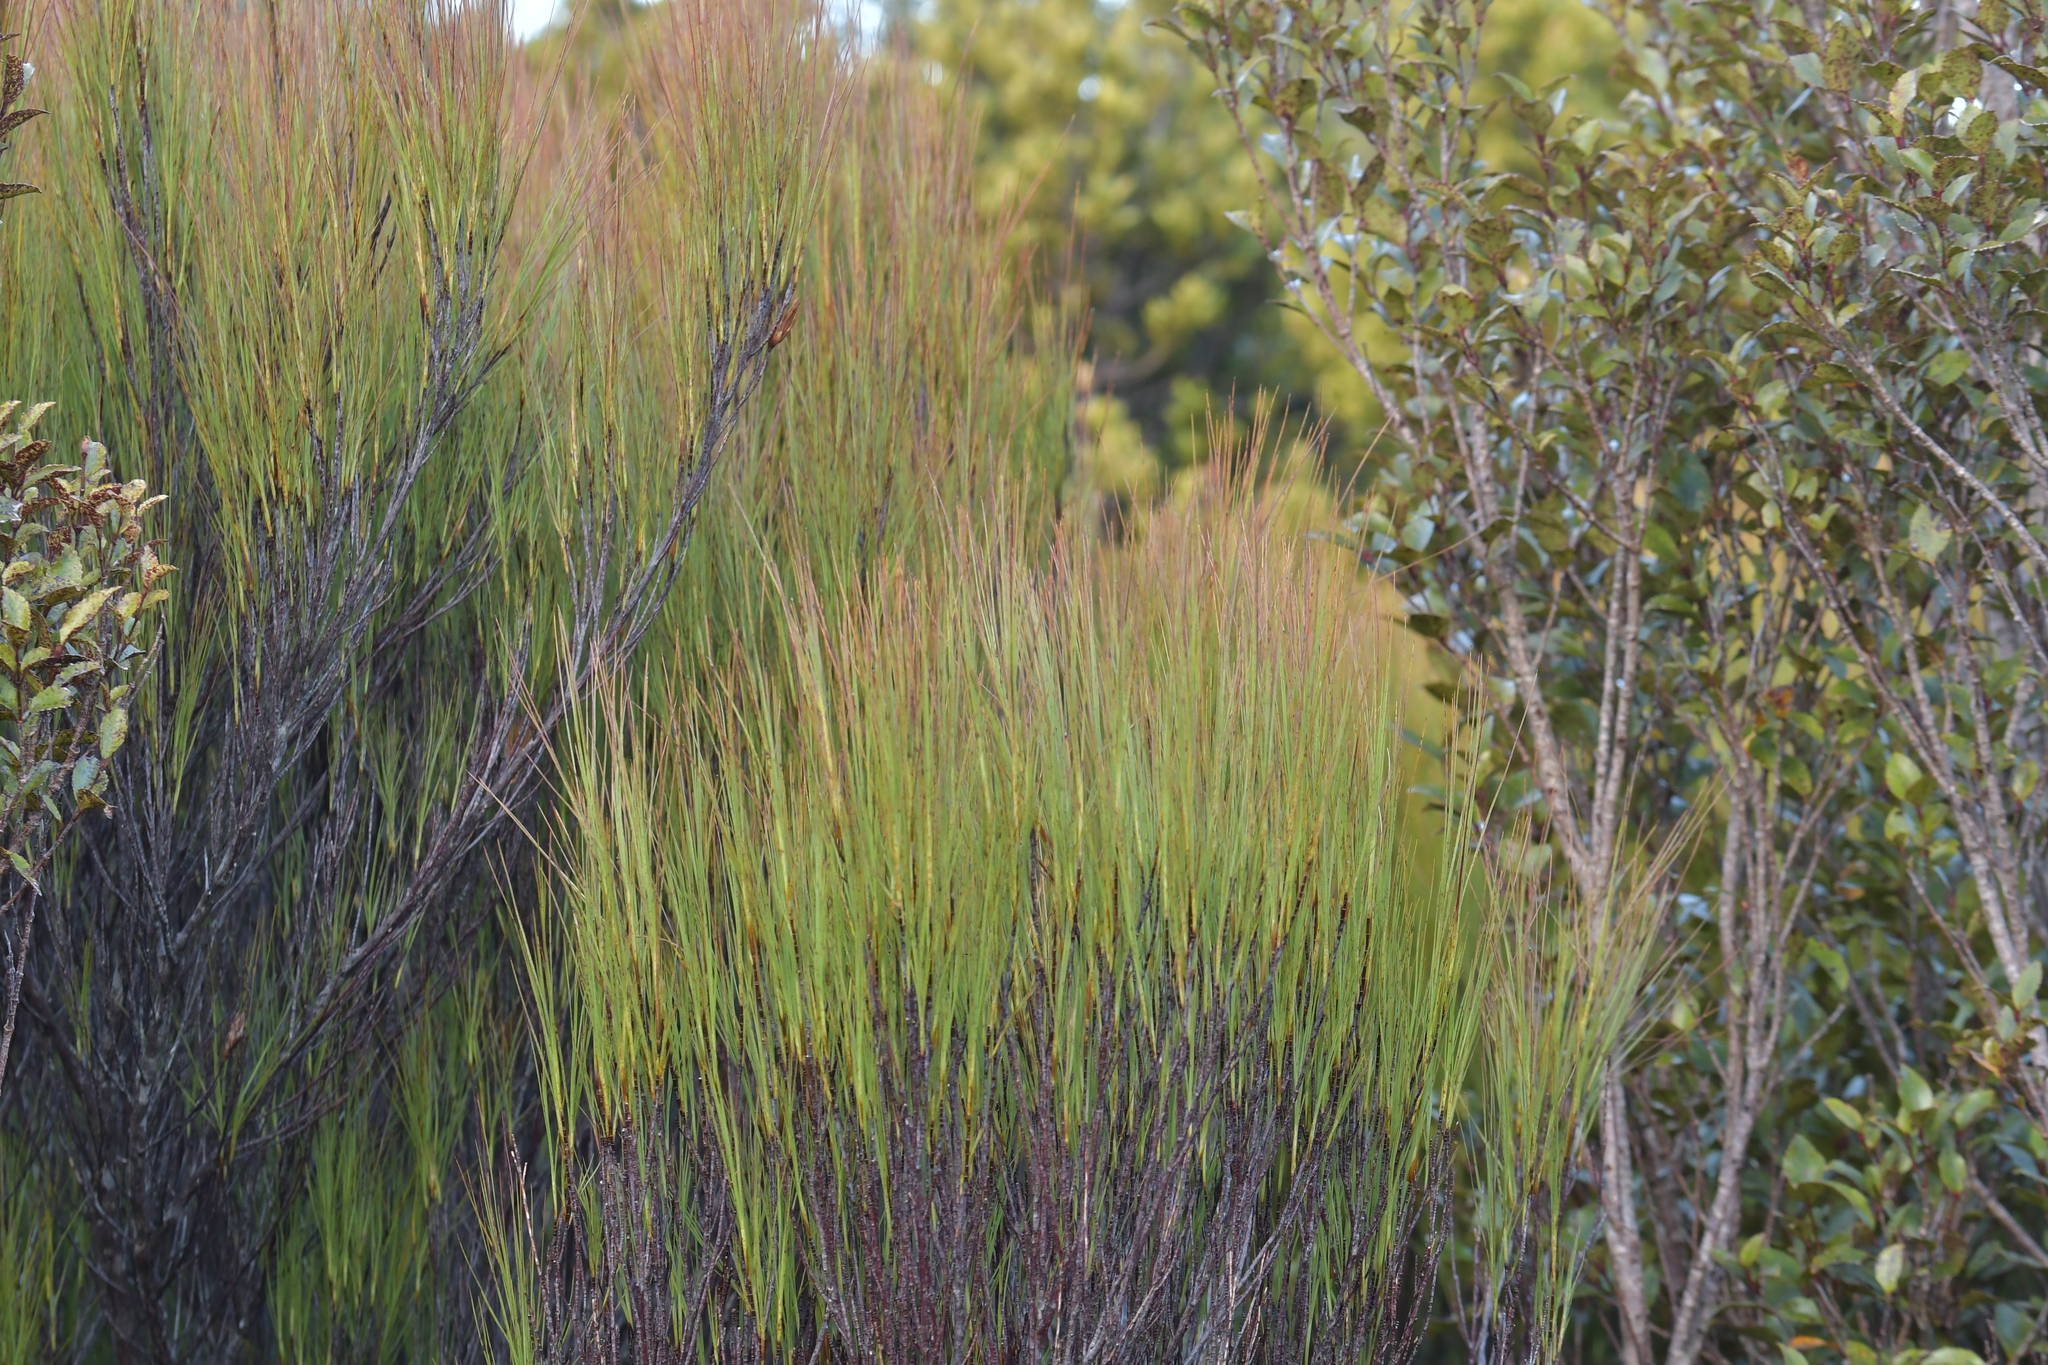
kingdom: Plantae
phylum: Tracheophyta
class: Magnoliopsida
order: Ericales
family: Ericaceae
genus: Dracophyllum
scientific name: Dracophyllum filifolium
